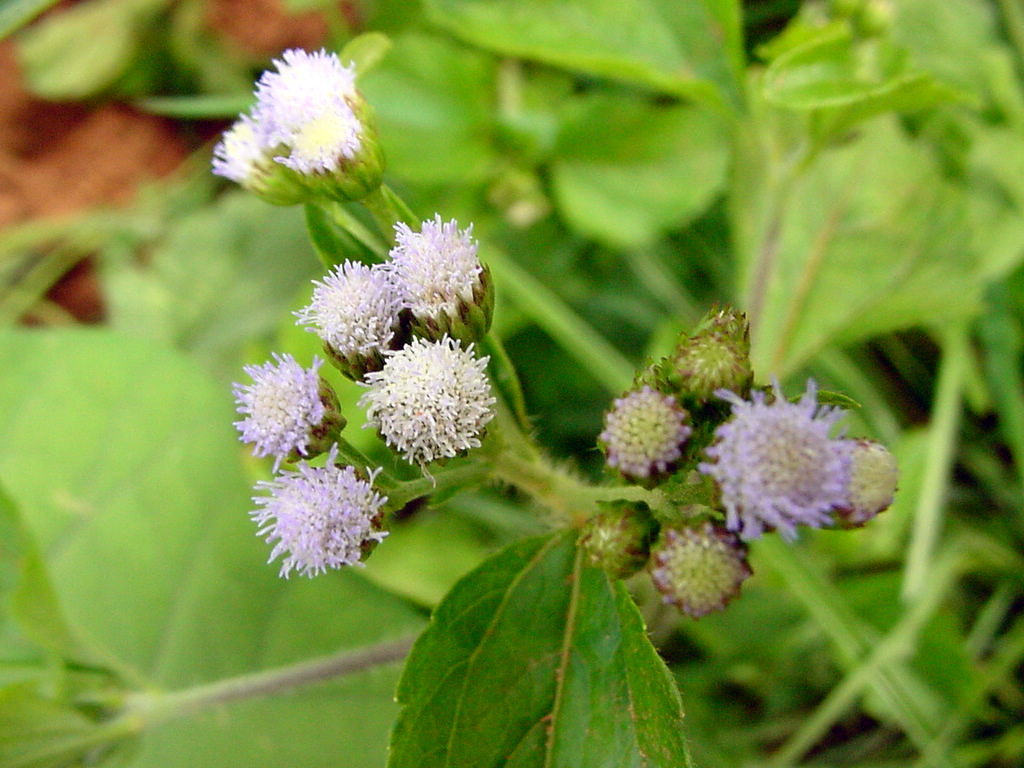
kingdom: Plantae
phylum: Tracheophyta
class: Magnoliopsida
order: Asterales
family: Asteraceae
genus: Ageratum
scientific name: Ageratum conyzoides
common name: Tropical whiteweed
